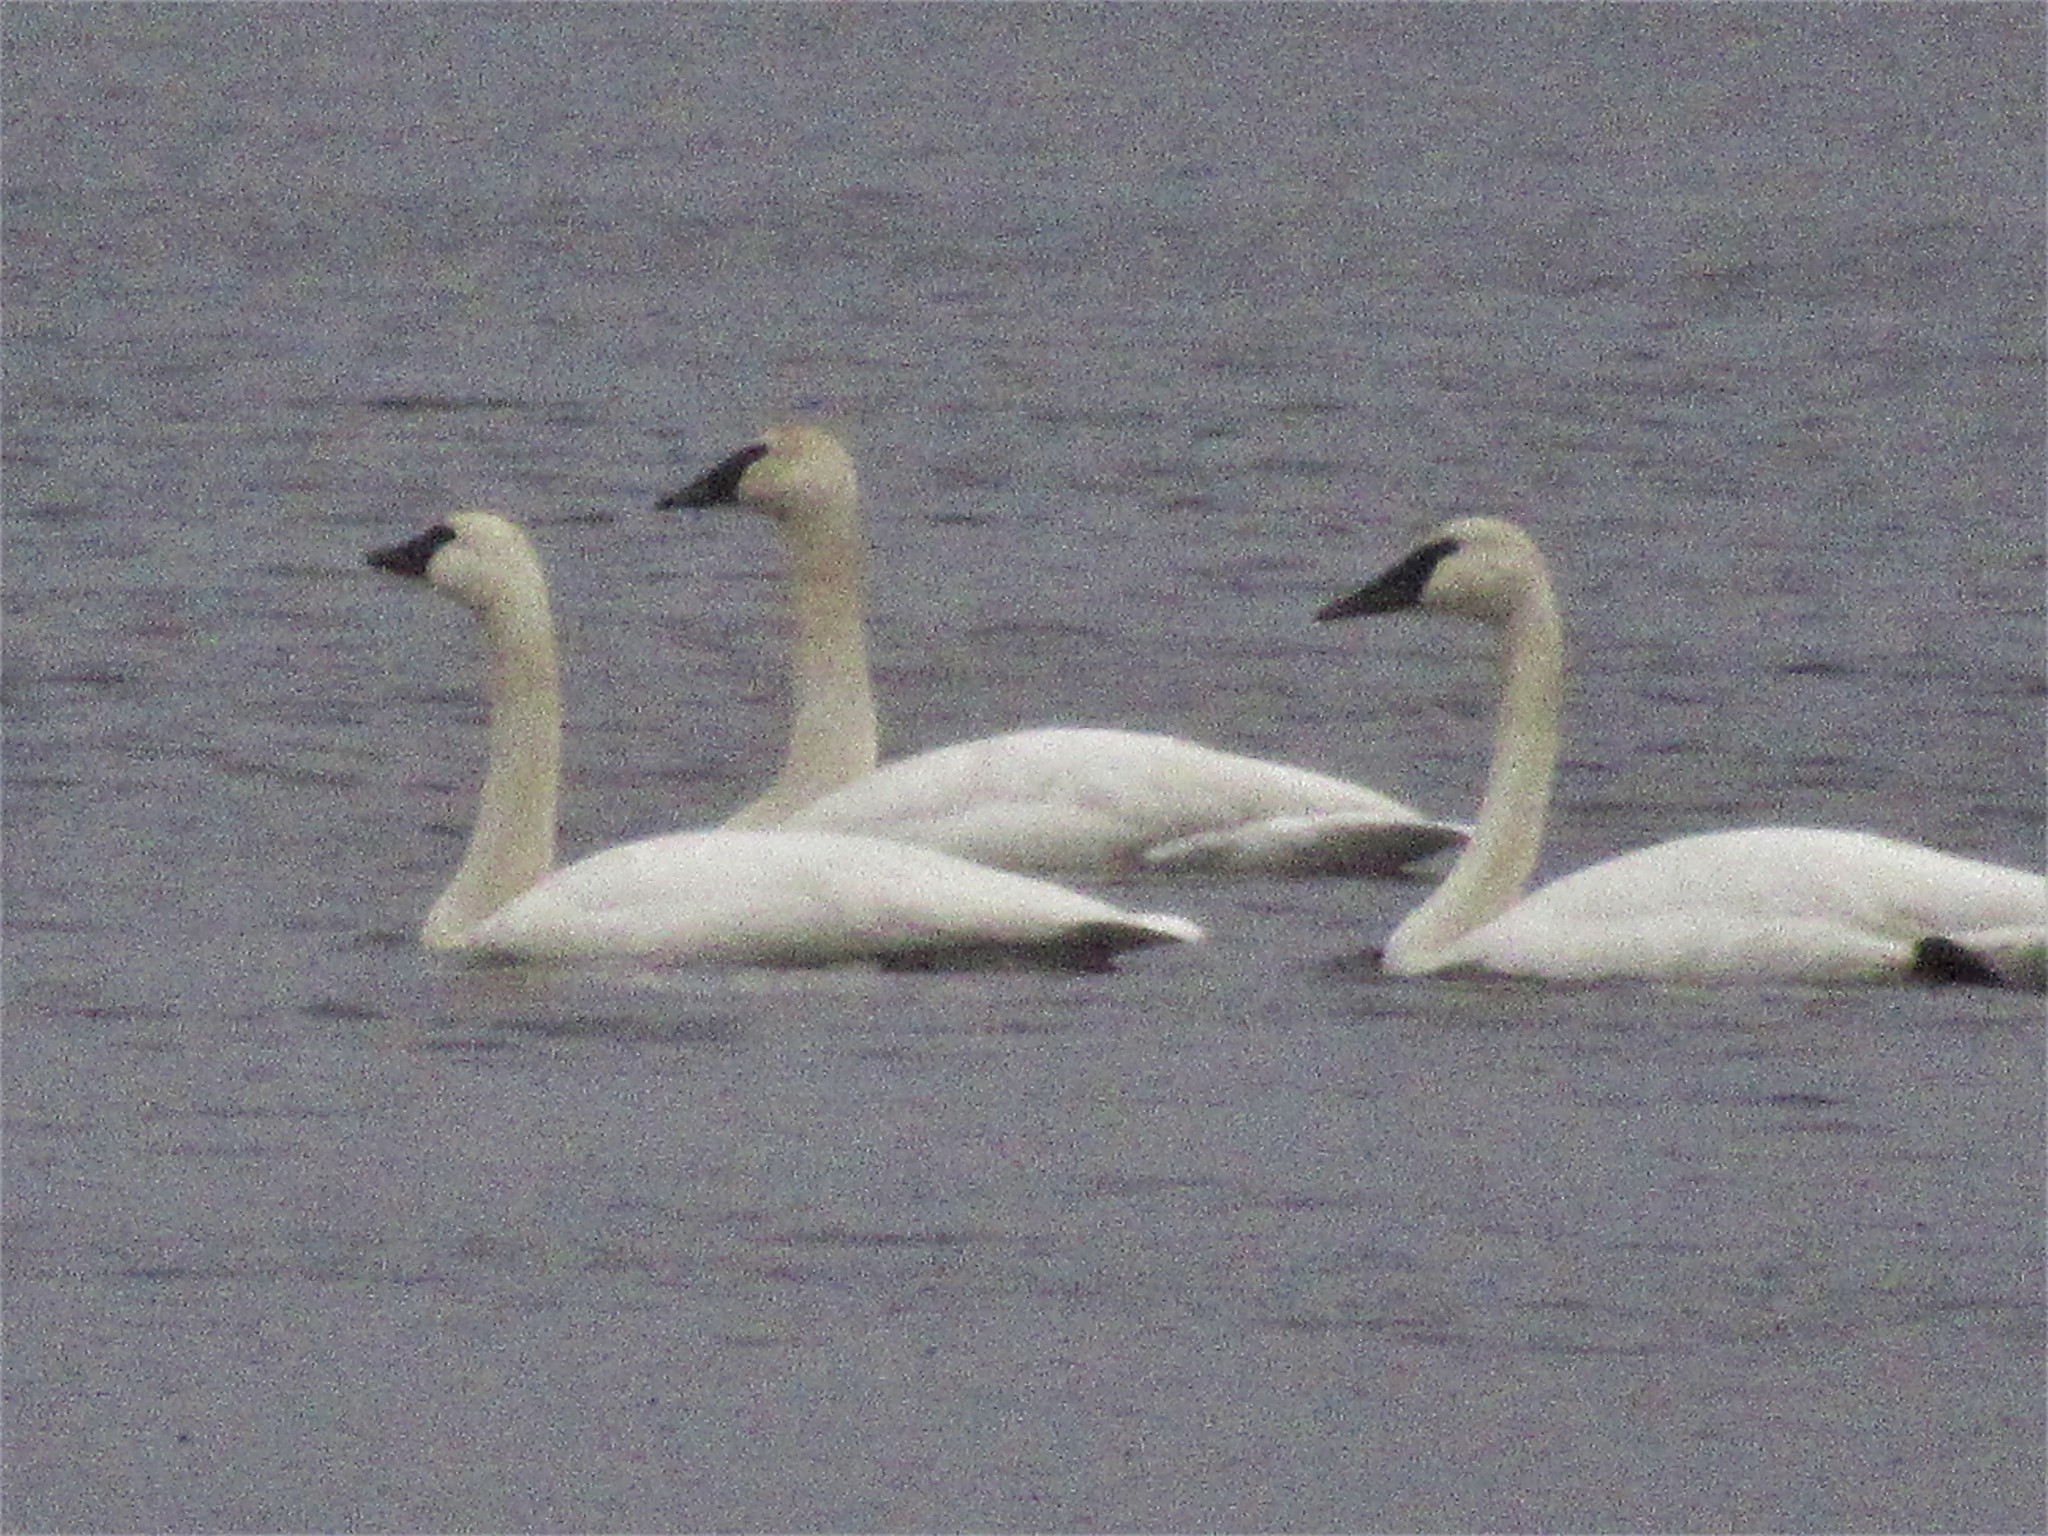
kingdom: Animalia
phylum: Chordata
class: Aves
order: Anseriformes
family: Anatidae
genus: Cygnus
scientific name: Cygnus buccinator
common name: Trumpeter swan
